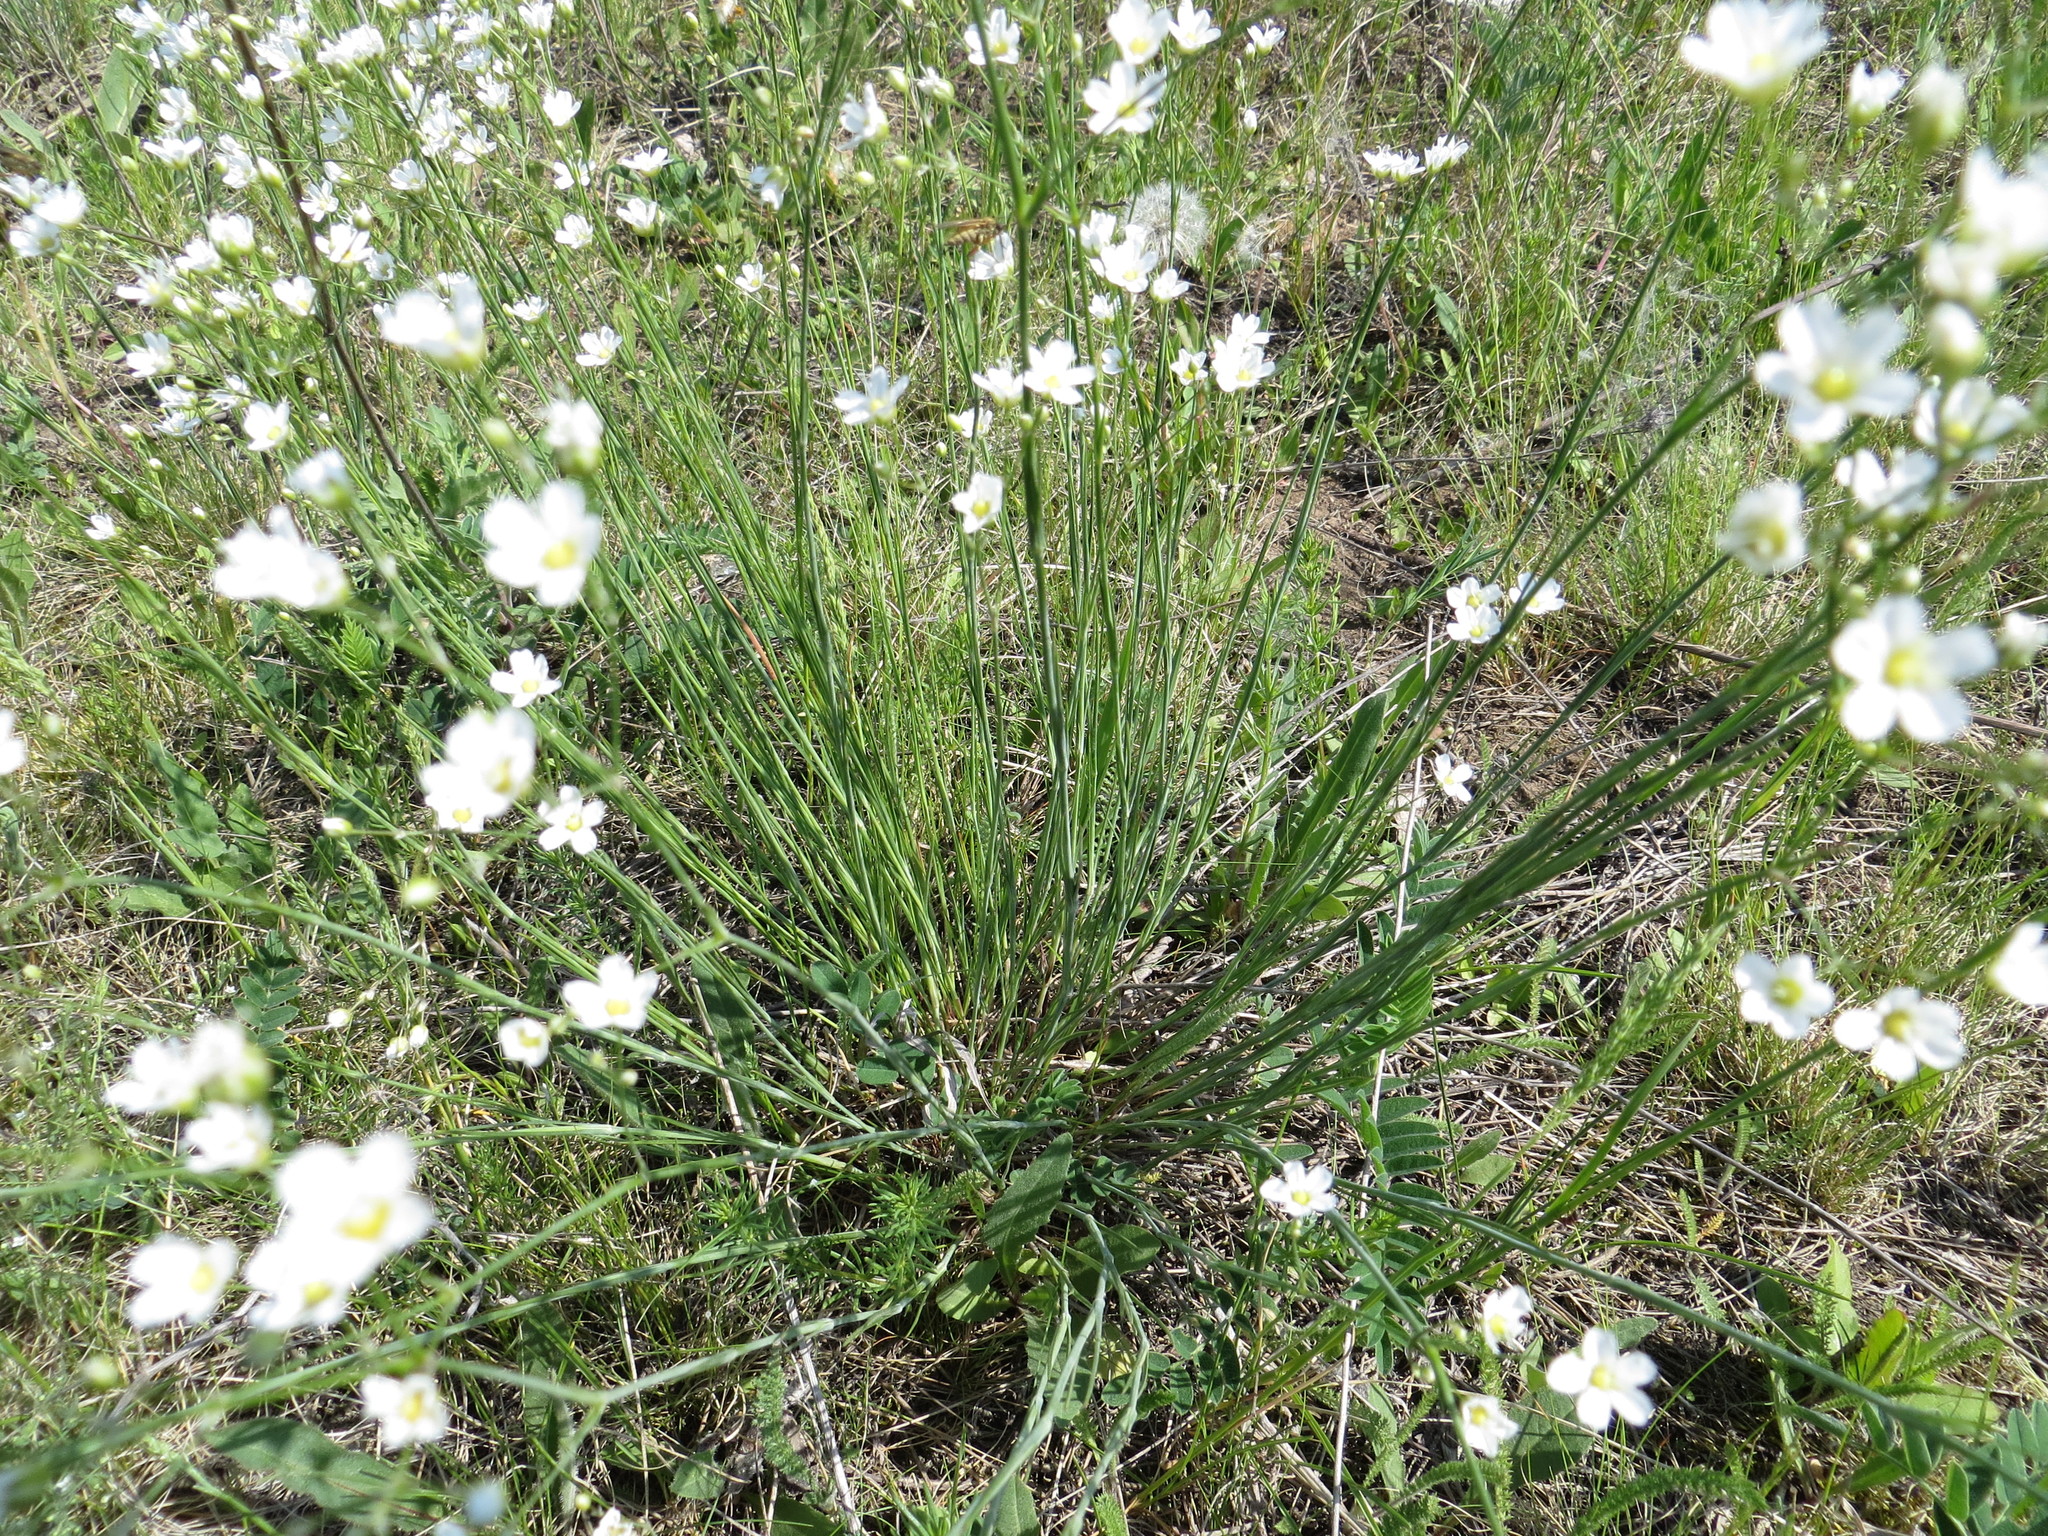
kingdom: Plantae
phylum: Tracheophyta
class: Magnoliopsida
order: Caryophyllales
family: Caryophyllaceae
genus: Eremogone
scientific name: Eremogone saxatilis
